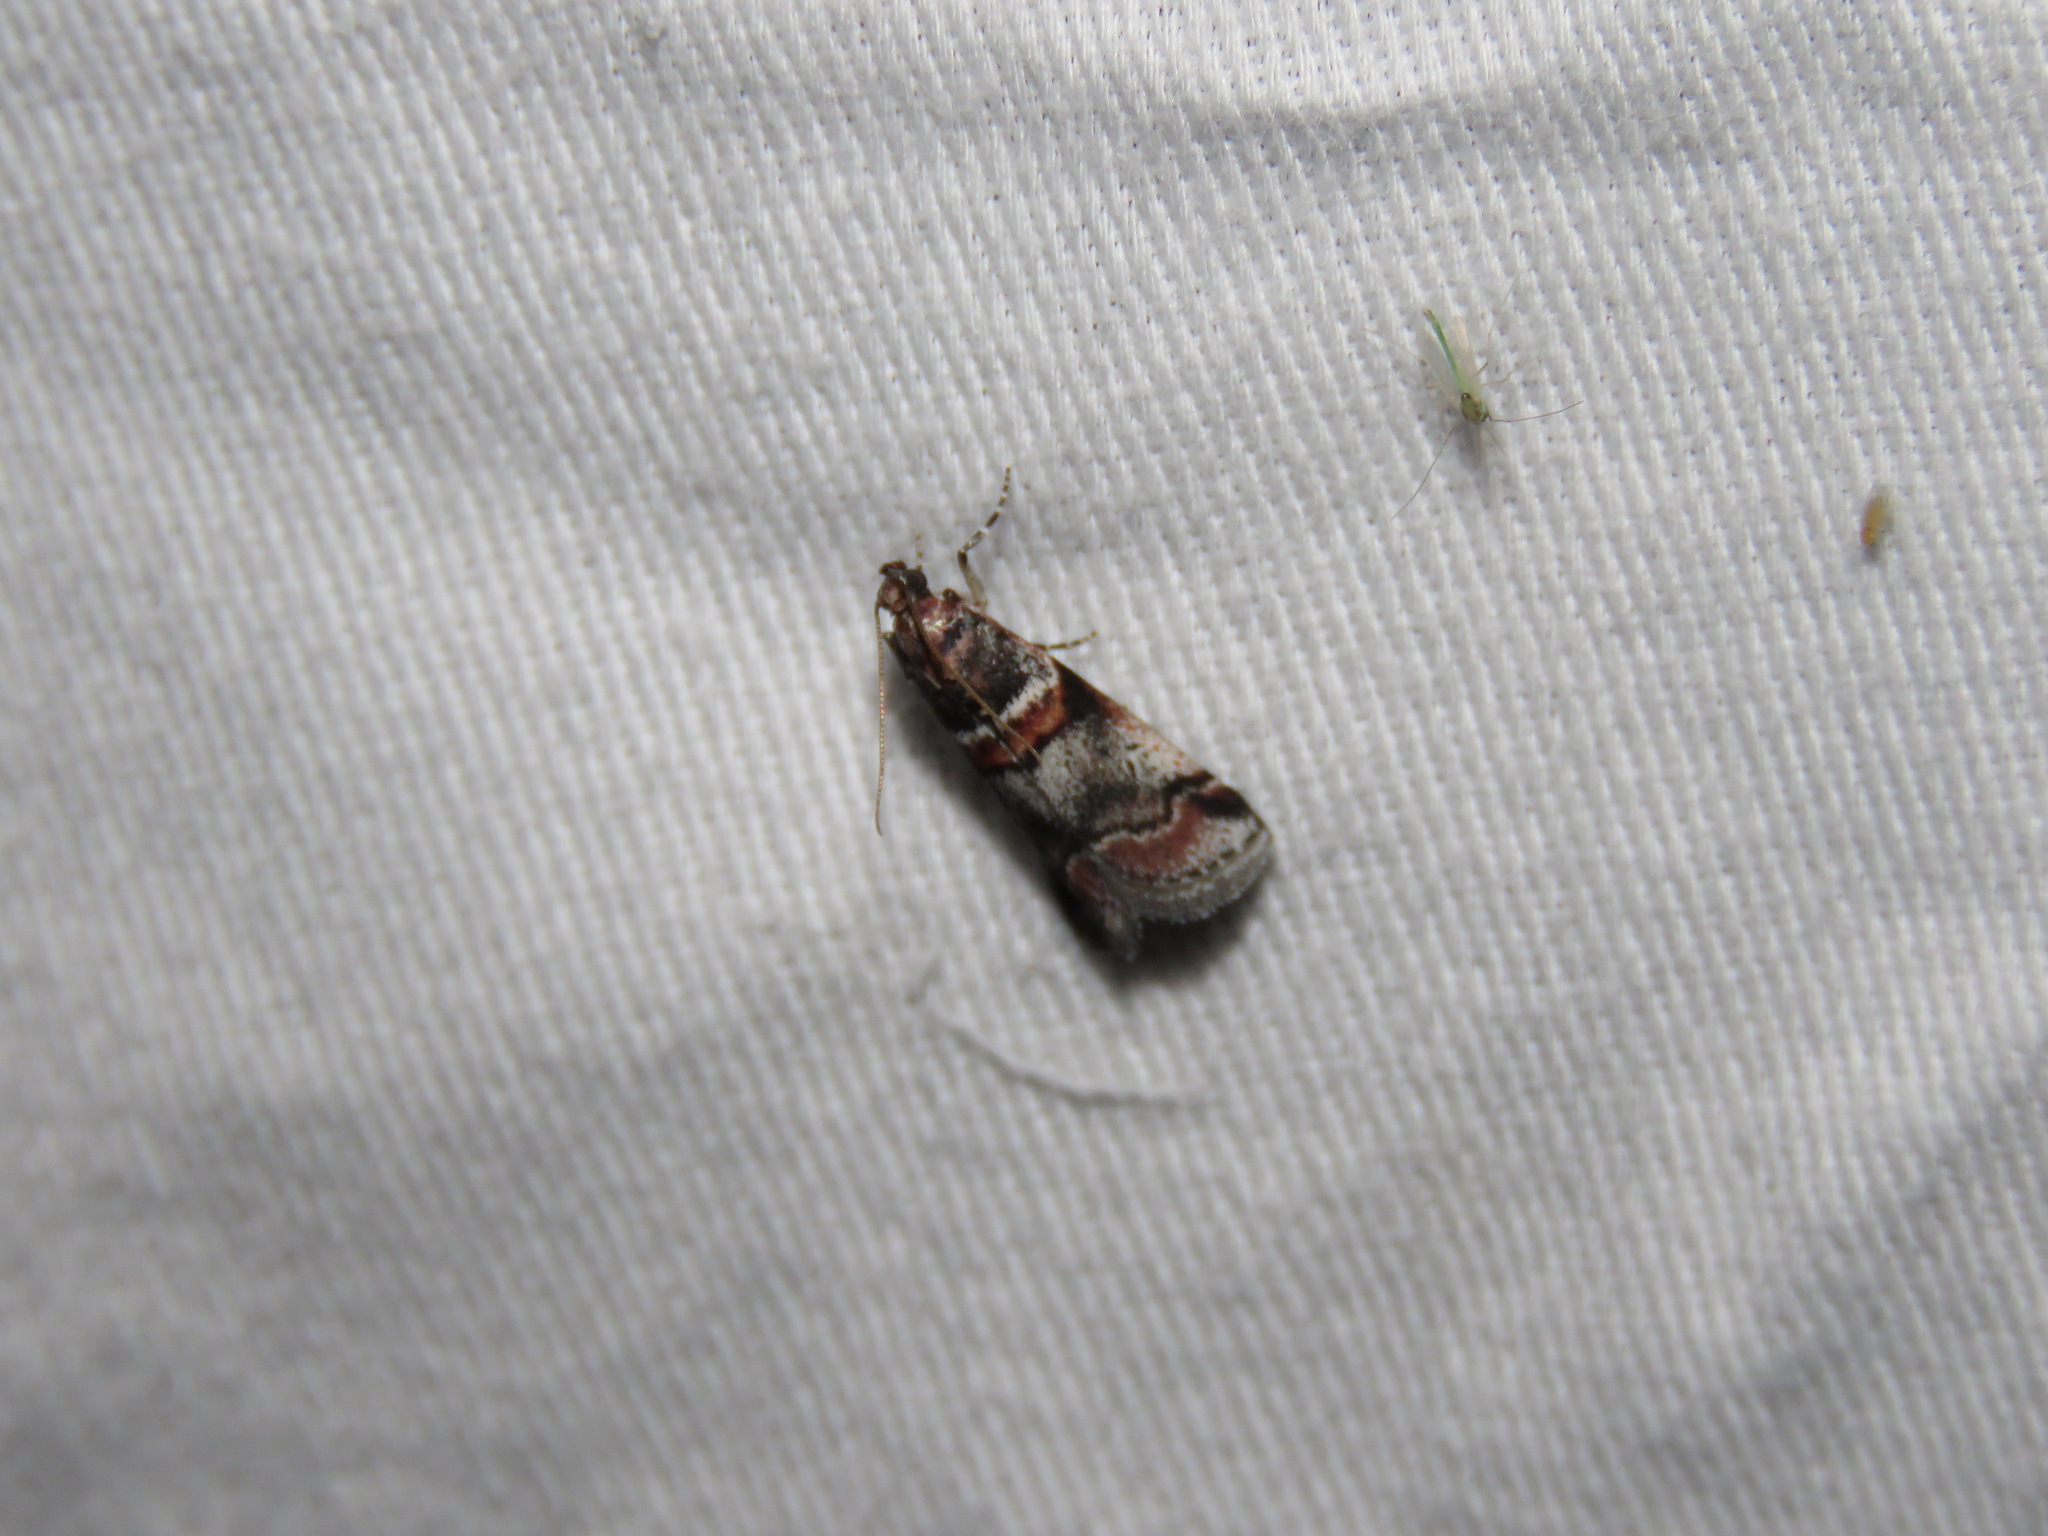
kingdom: Animalia
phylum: Arthropoda
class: Insecta
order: Lepidoptera
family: Pyralidae
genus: Acrobasis
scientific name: Acrobasis tricolorella
